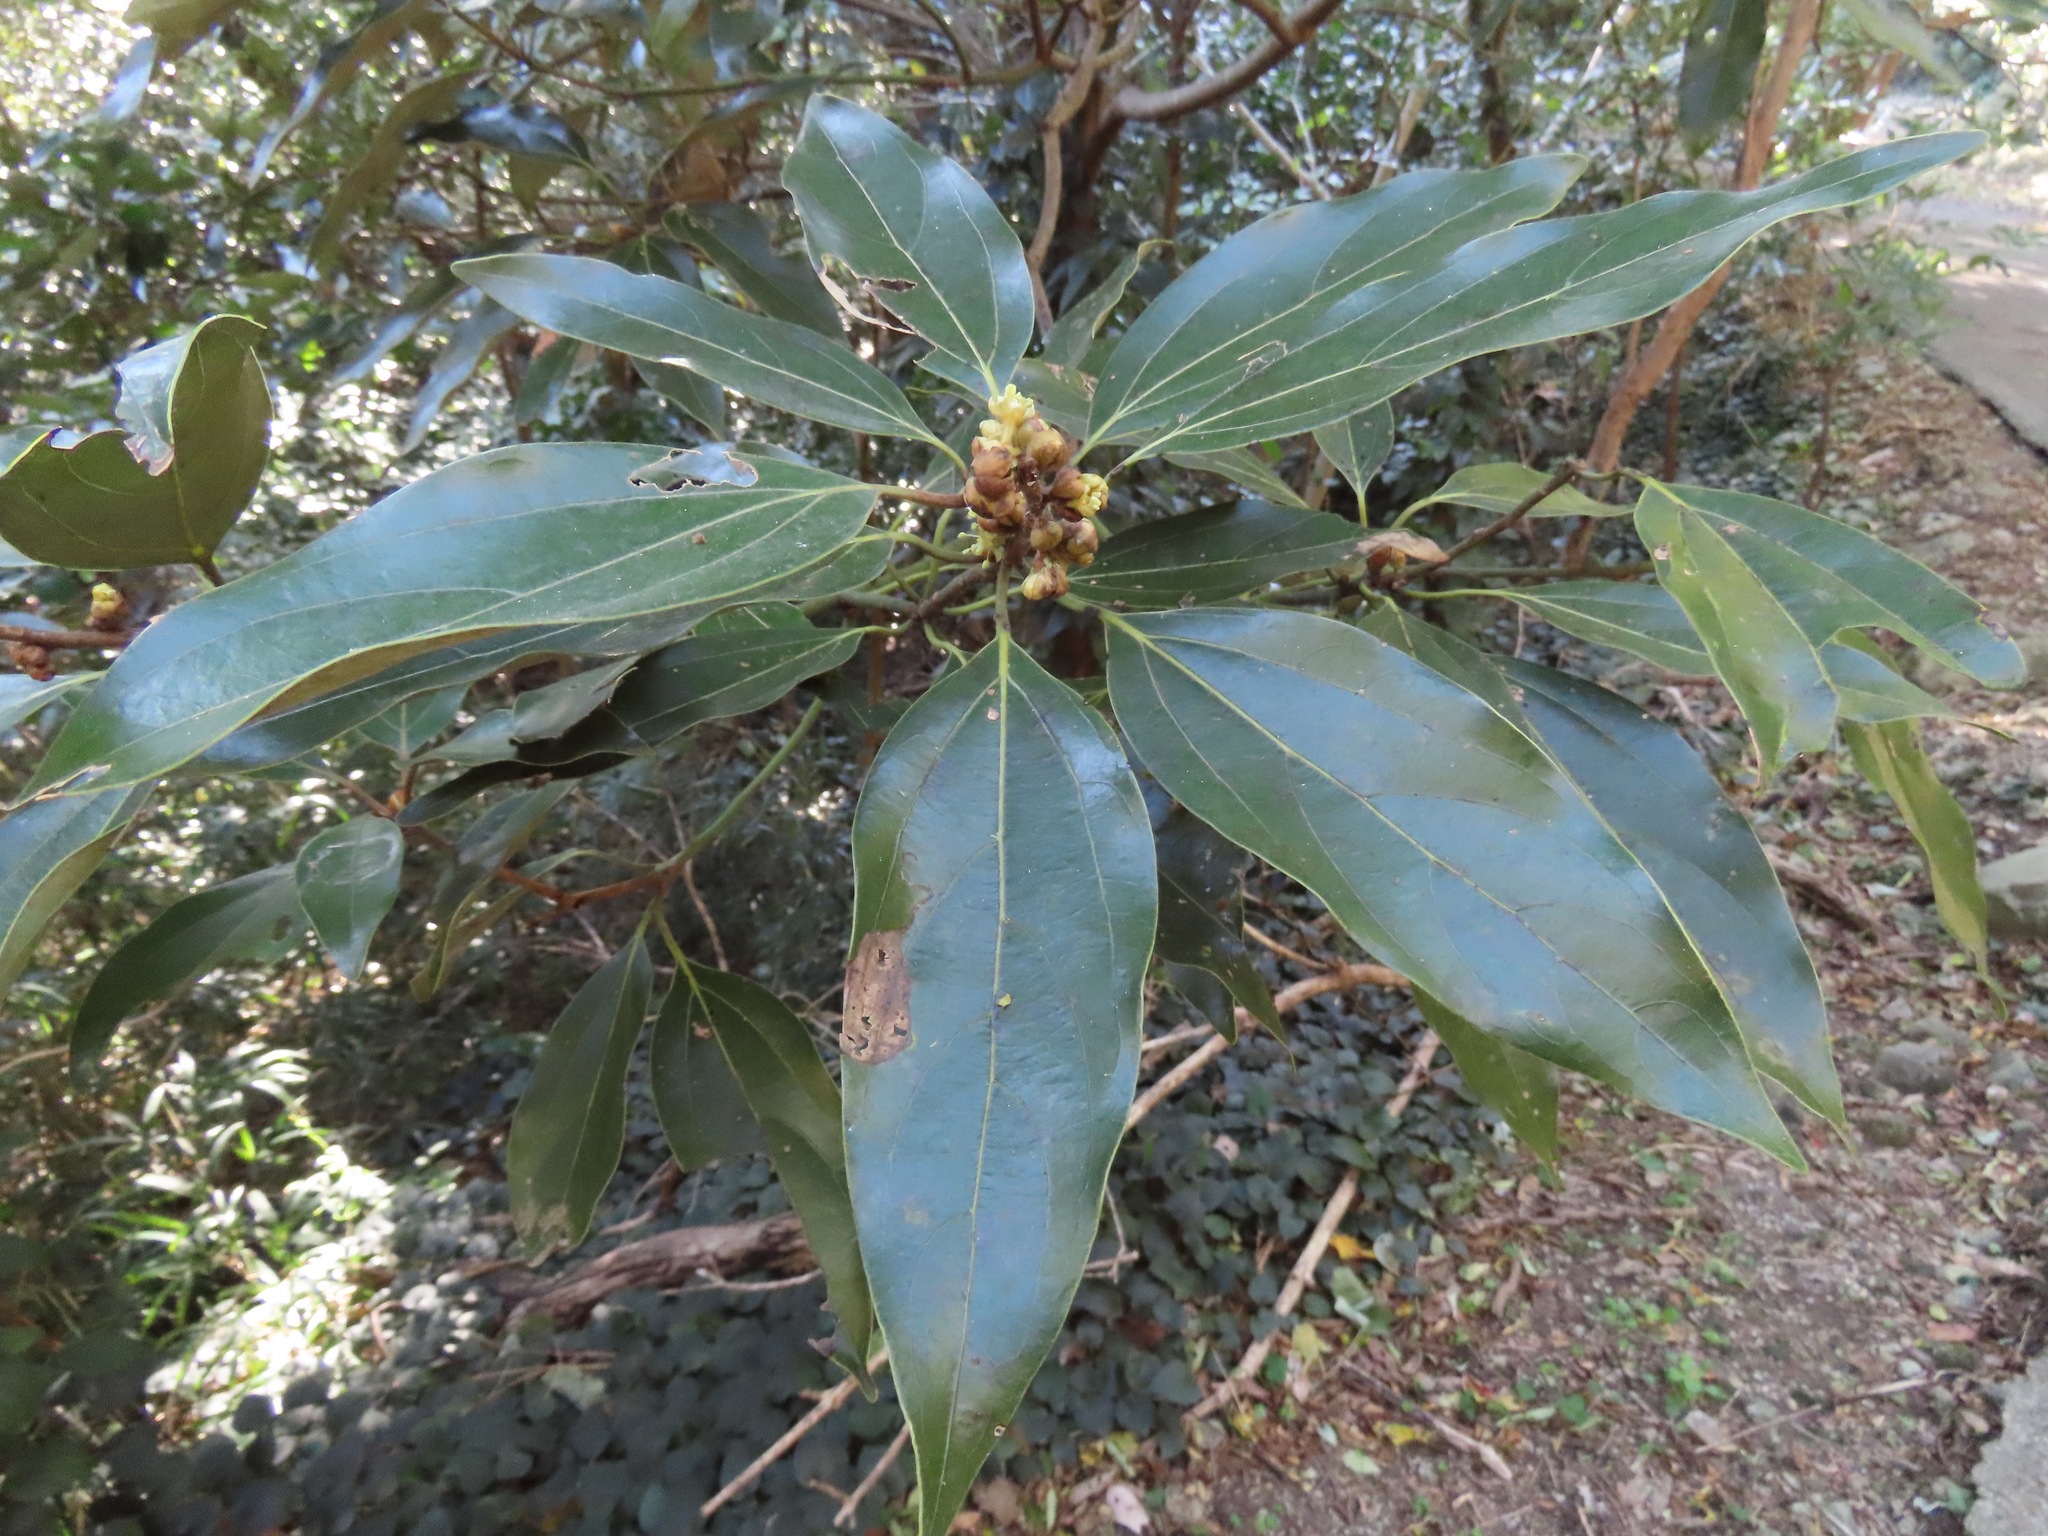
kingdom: Plantae
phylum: Tracheophyta
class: Magnoliopsida
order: Laurales
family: Lauraceae
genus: Neolitsea
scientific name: Neolitsea sericea
